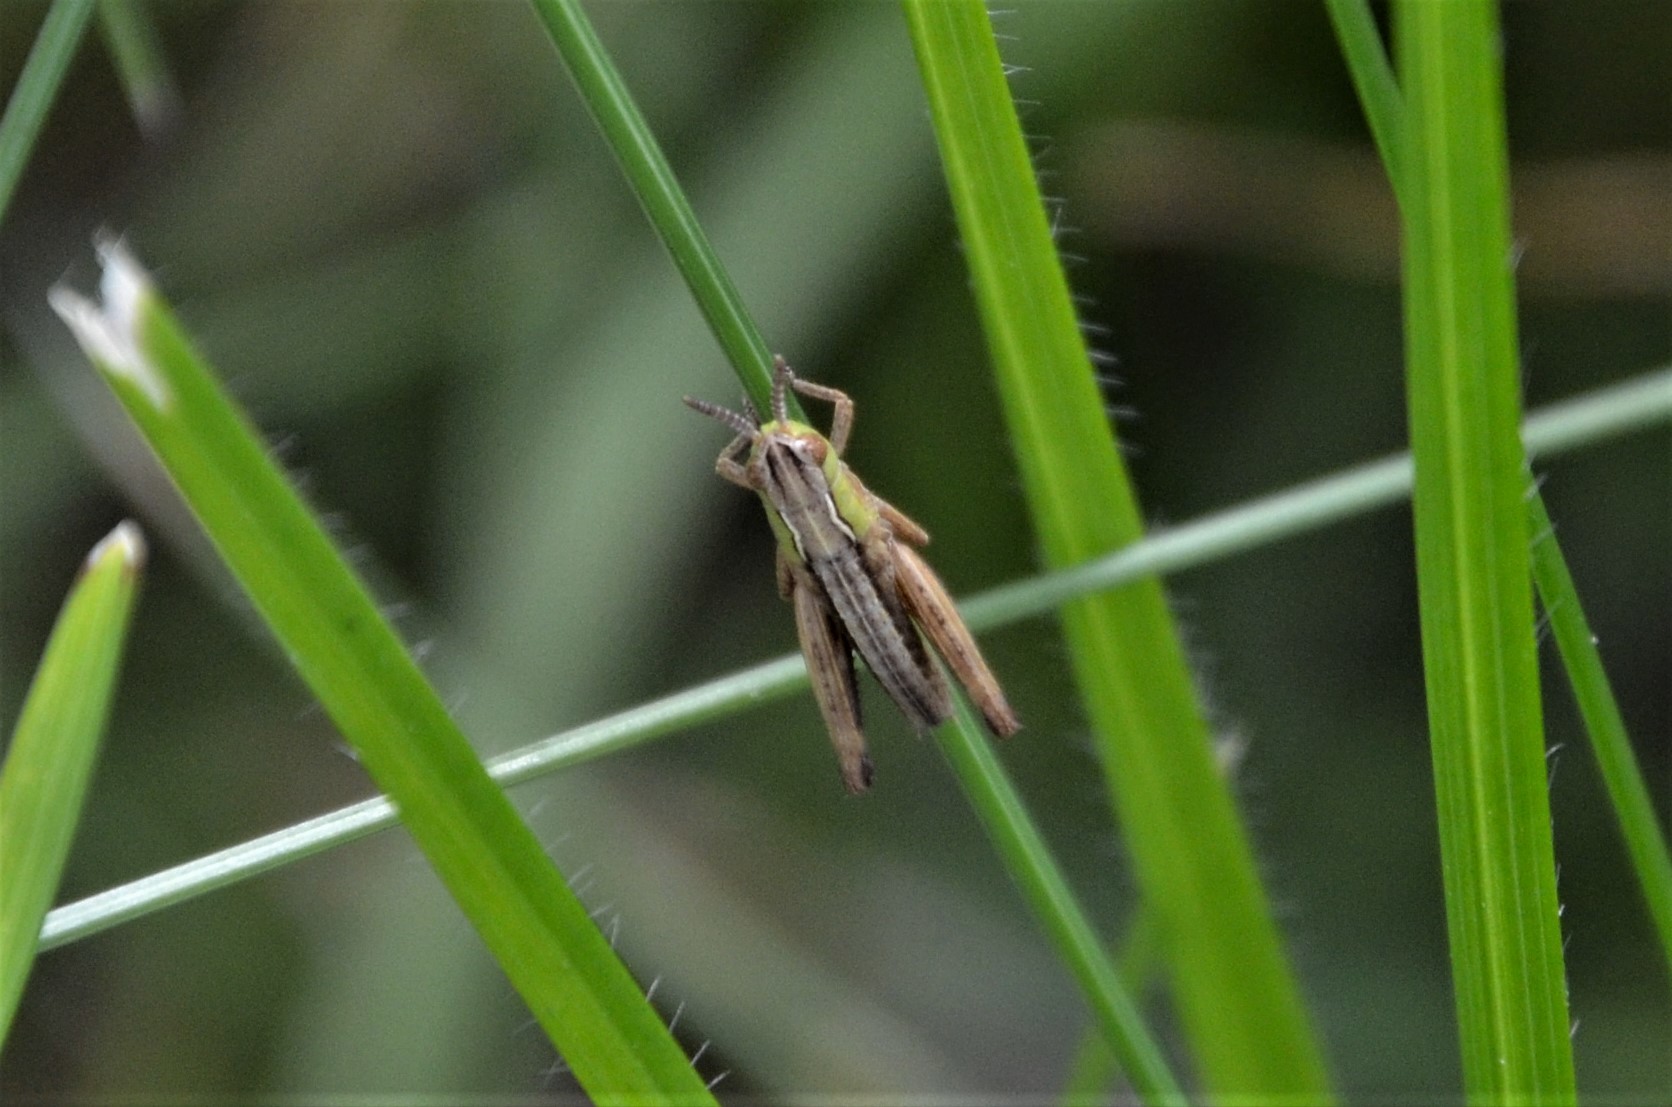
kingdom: Animalia
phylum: Arthropoda
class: Insecta
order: Orthoptera
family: Acrididae
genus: Stenobothrus
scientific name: Stenobothrus lineatus
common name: Stripe-winged grasshopper
